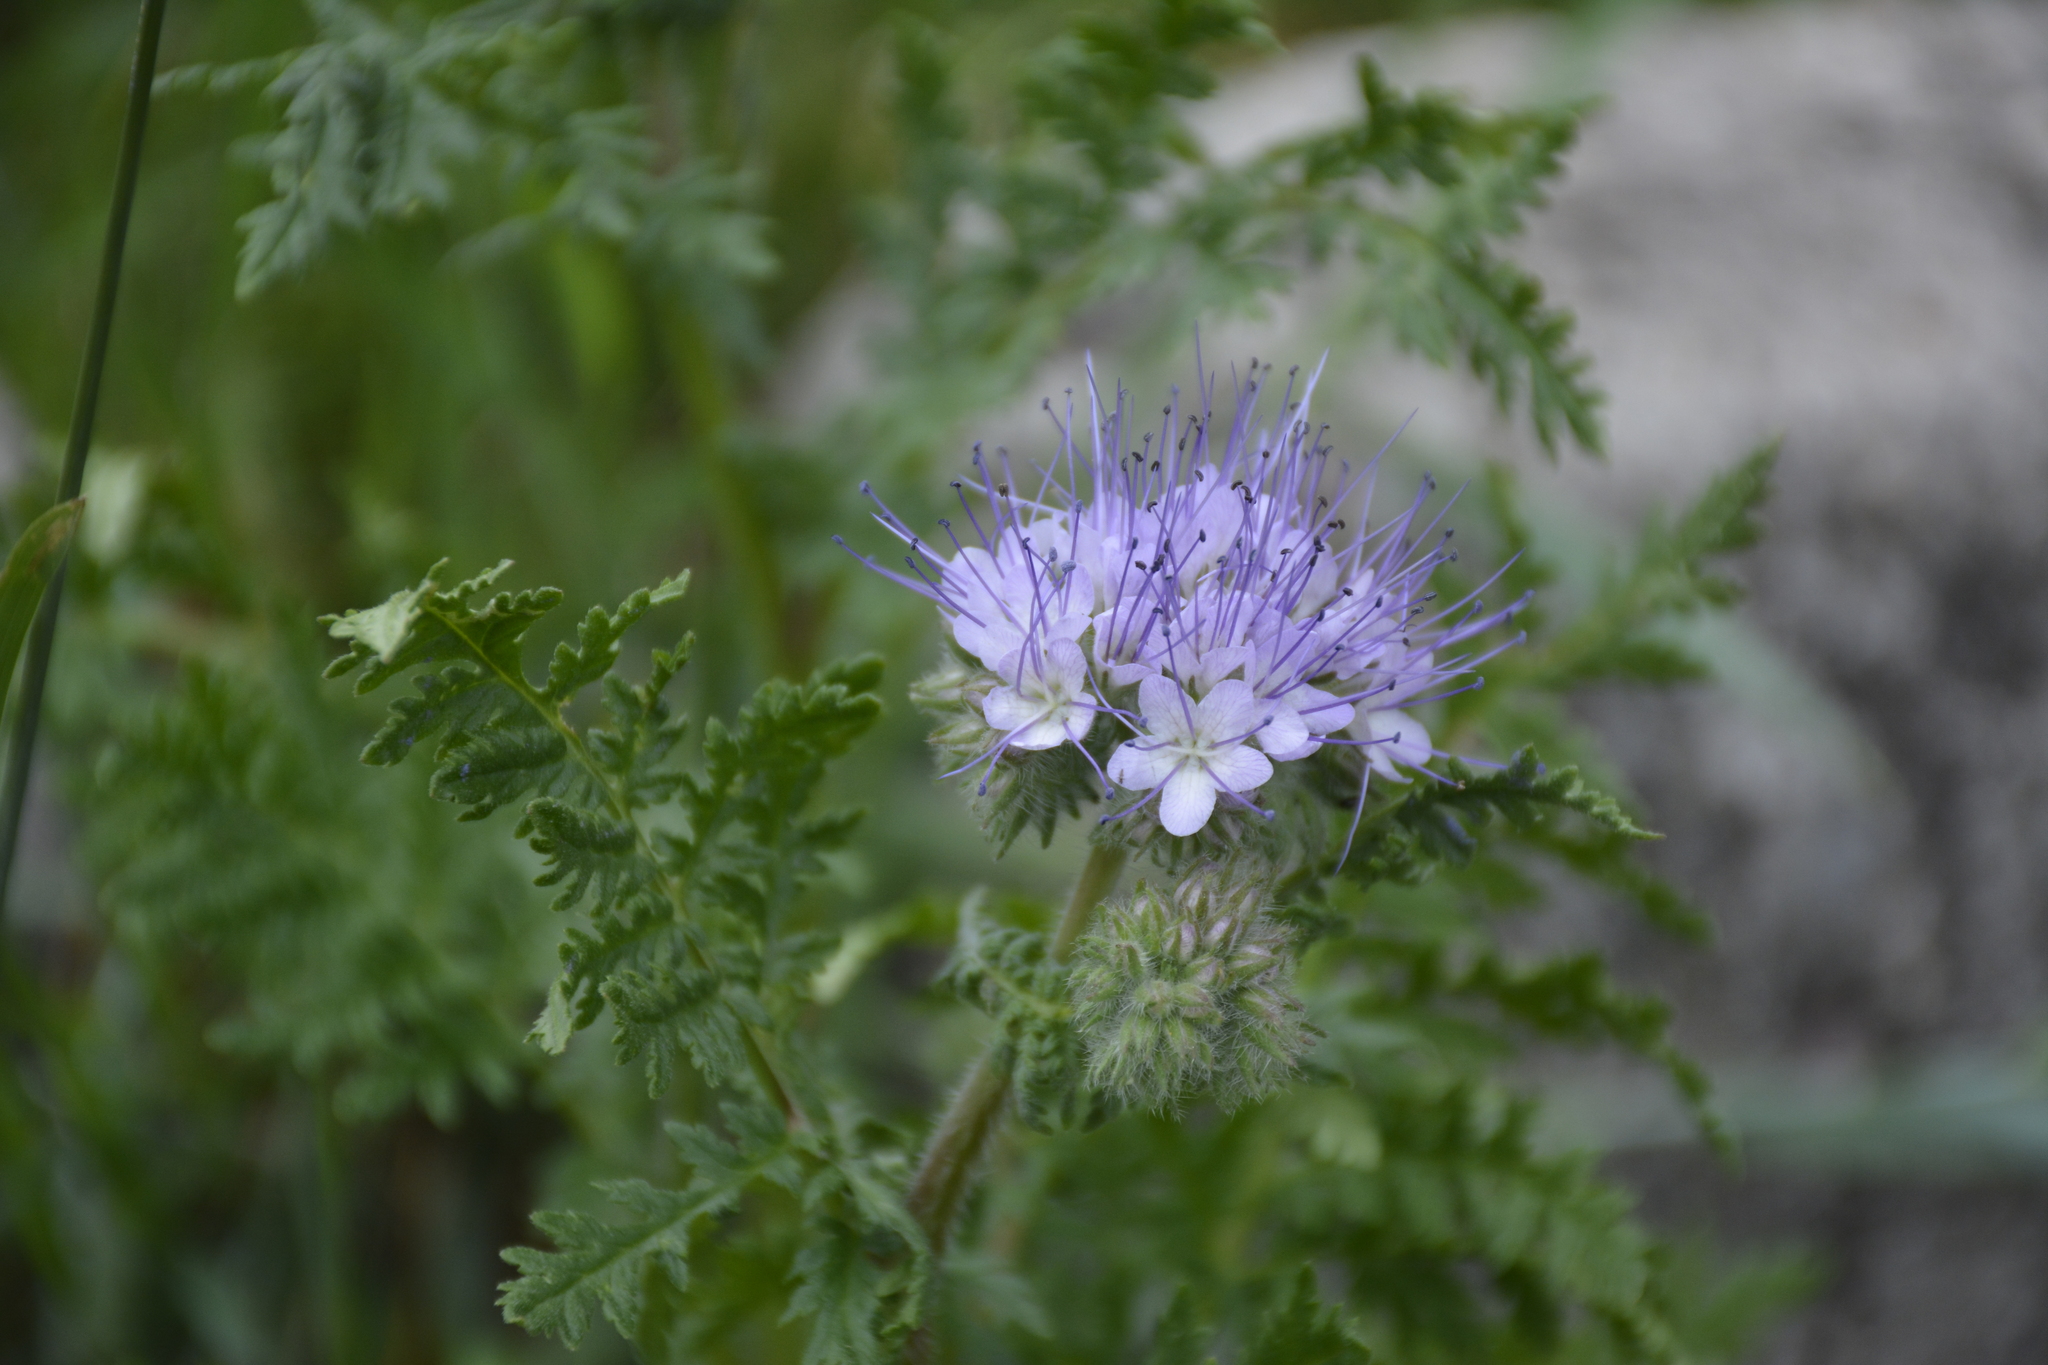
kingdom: Plantae
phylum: Tracheophyta
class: Magnoliopsida
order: Boraginales
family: Hydrophyllaceae
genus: Phacelia
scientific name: Phacelia tanacetifolia
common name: Phacelia
